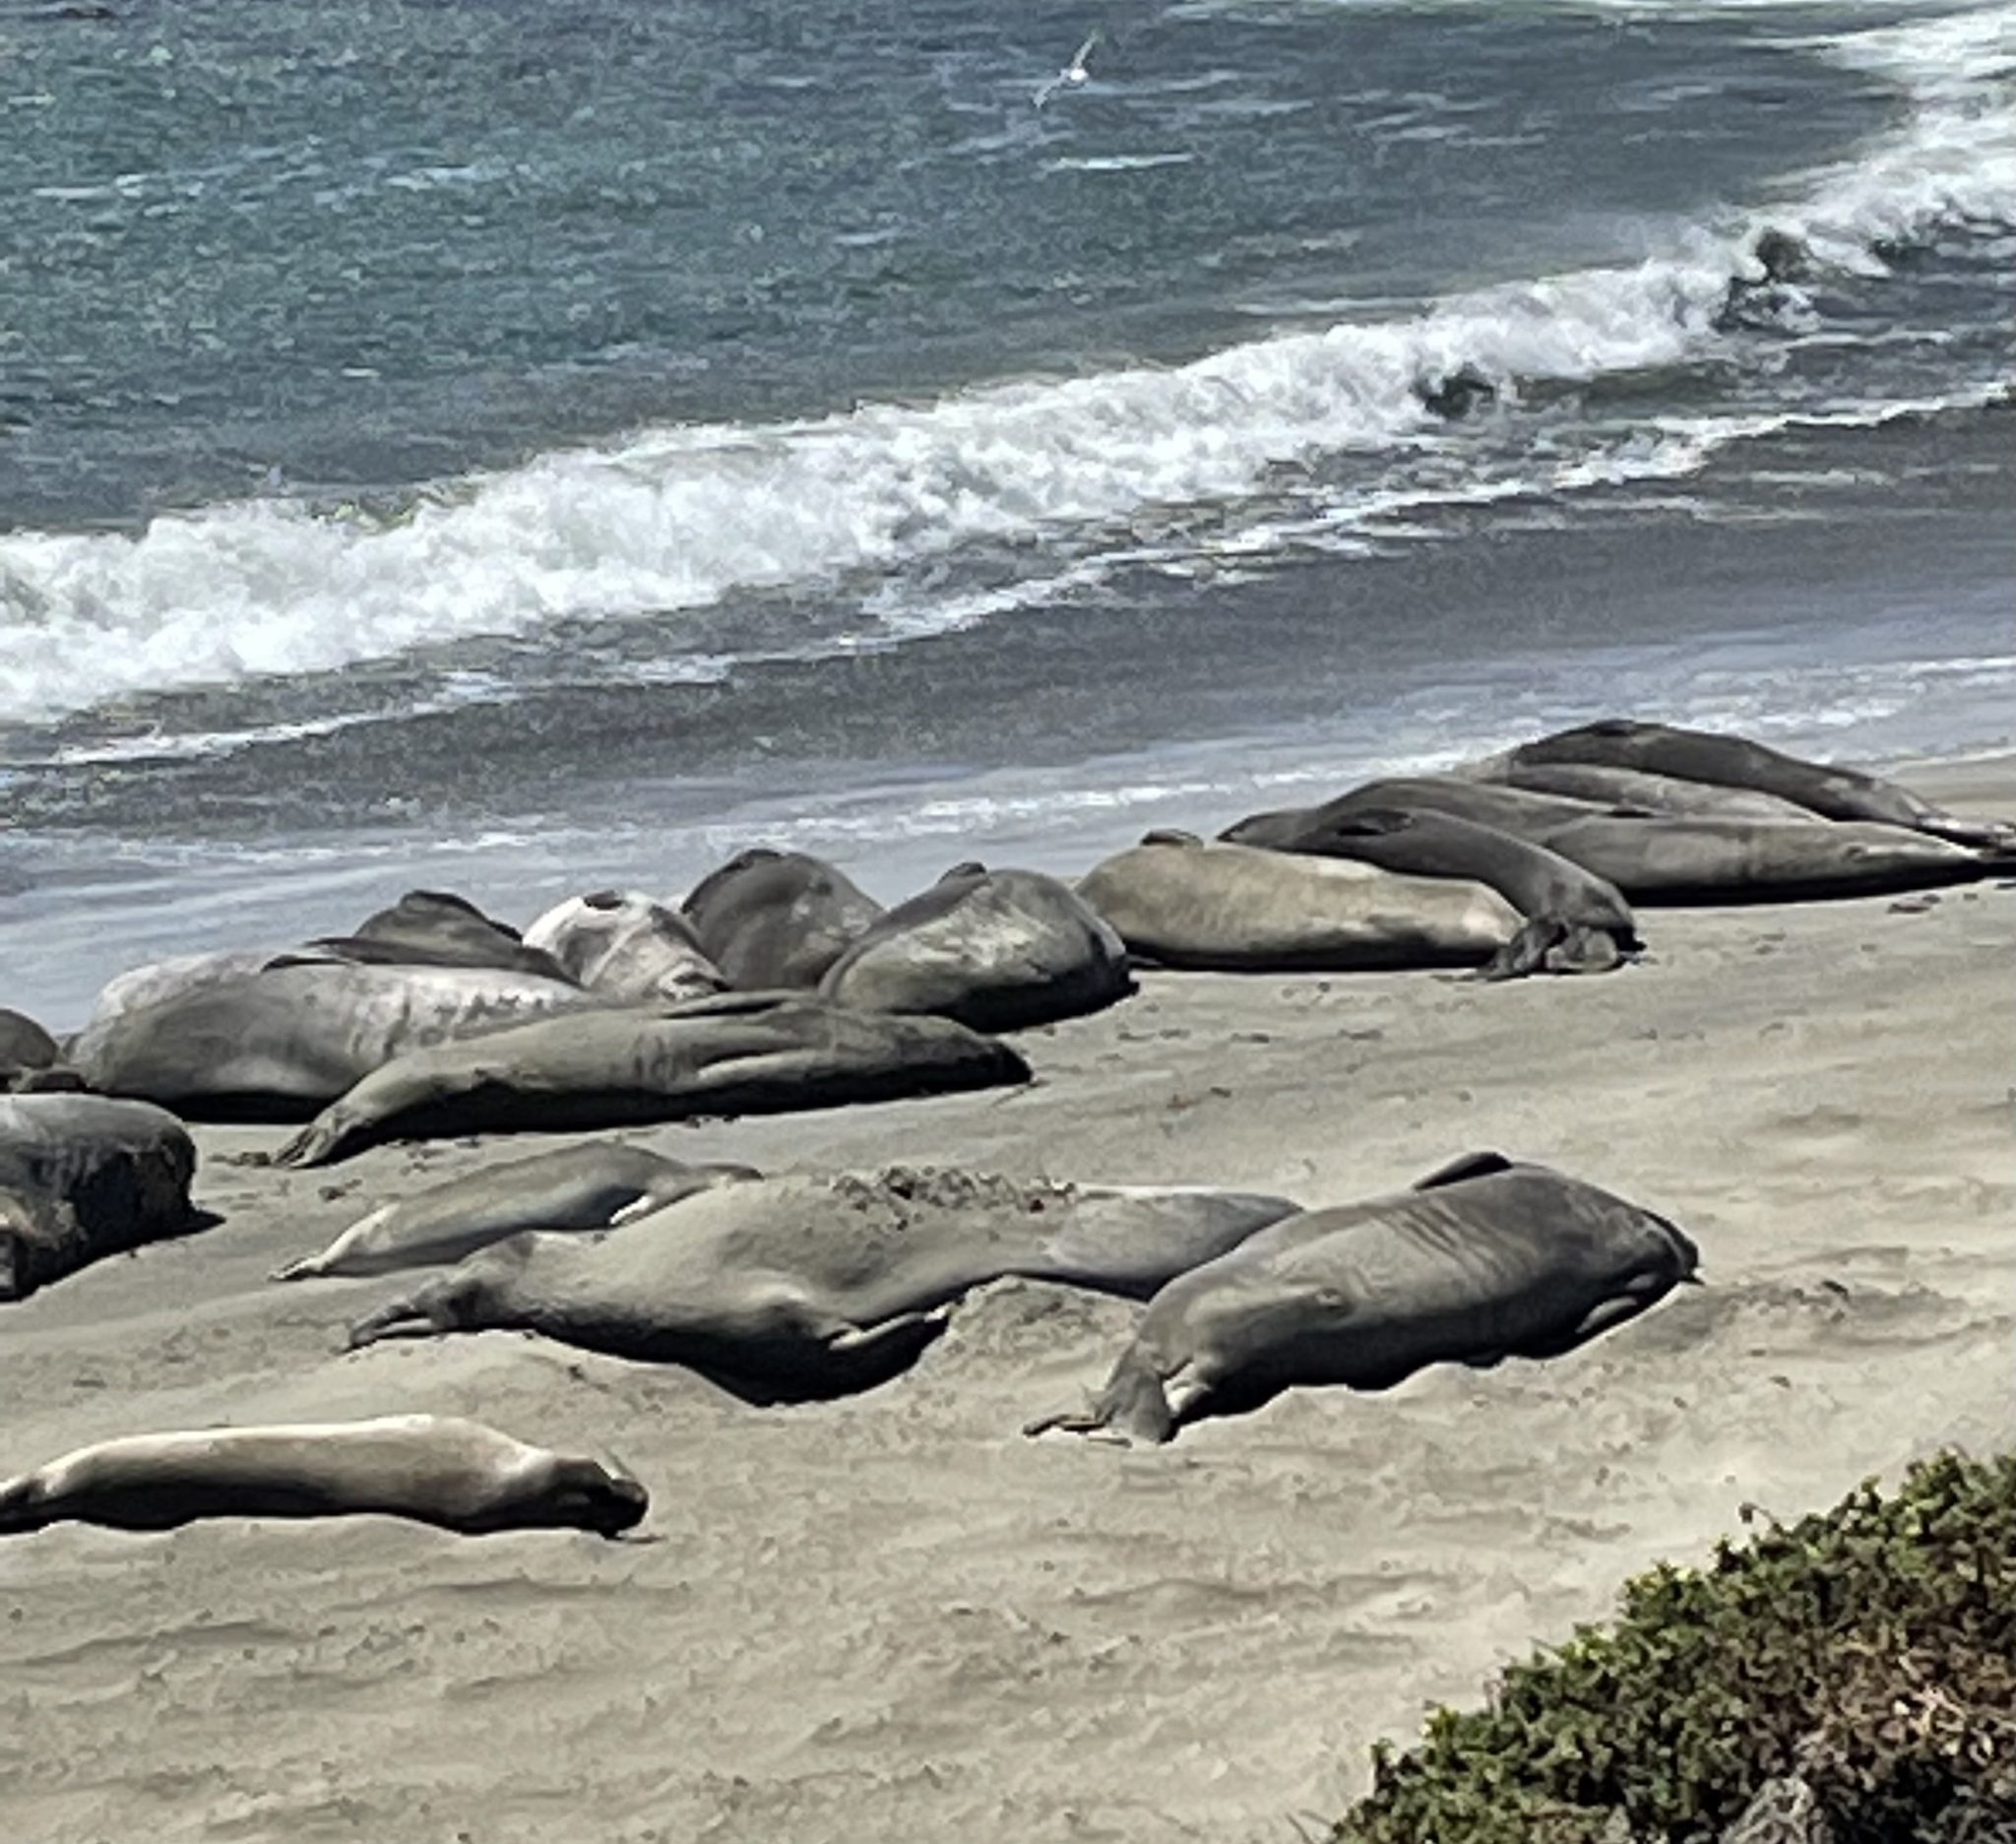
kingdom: Animalia
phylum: Chordata
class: Mammalia
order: Carnivora
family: Phocidae
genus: Mirounga
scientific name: Mirounga angustirostris
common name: Northern elephant seal
